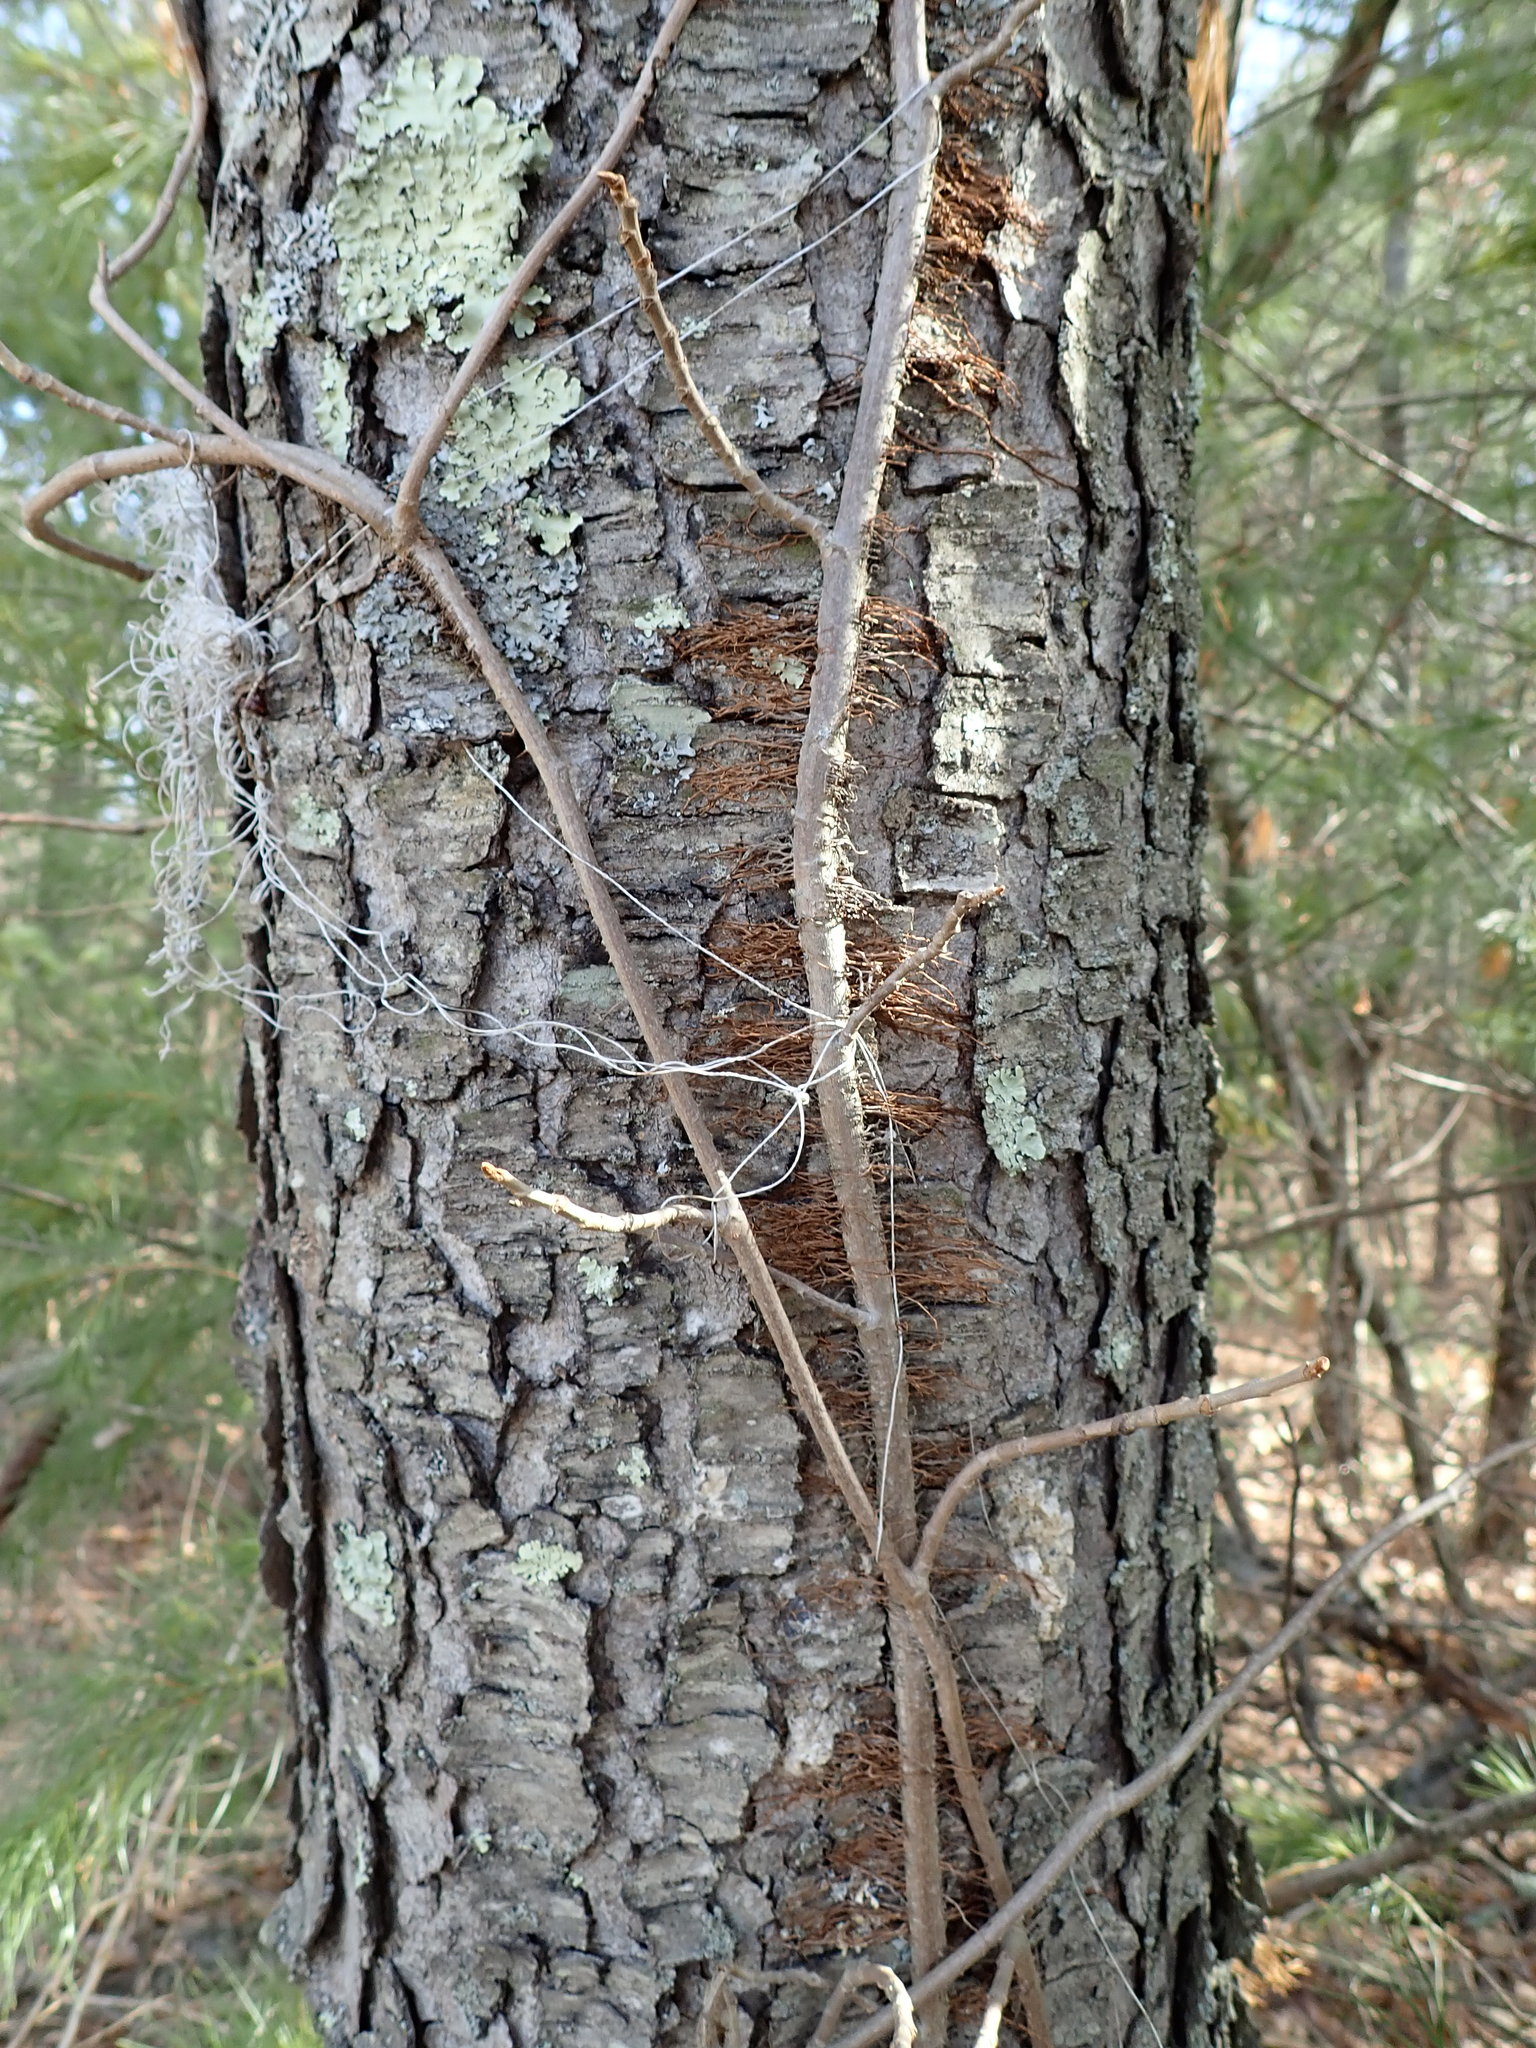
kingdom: Plantae
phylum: Tracheophyta
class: Magnoliopsida
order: Sapindales
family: Anacardiaceae
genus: Toxicodendron
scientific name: Toxicodendron radicans
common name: Poison ivy
